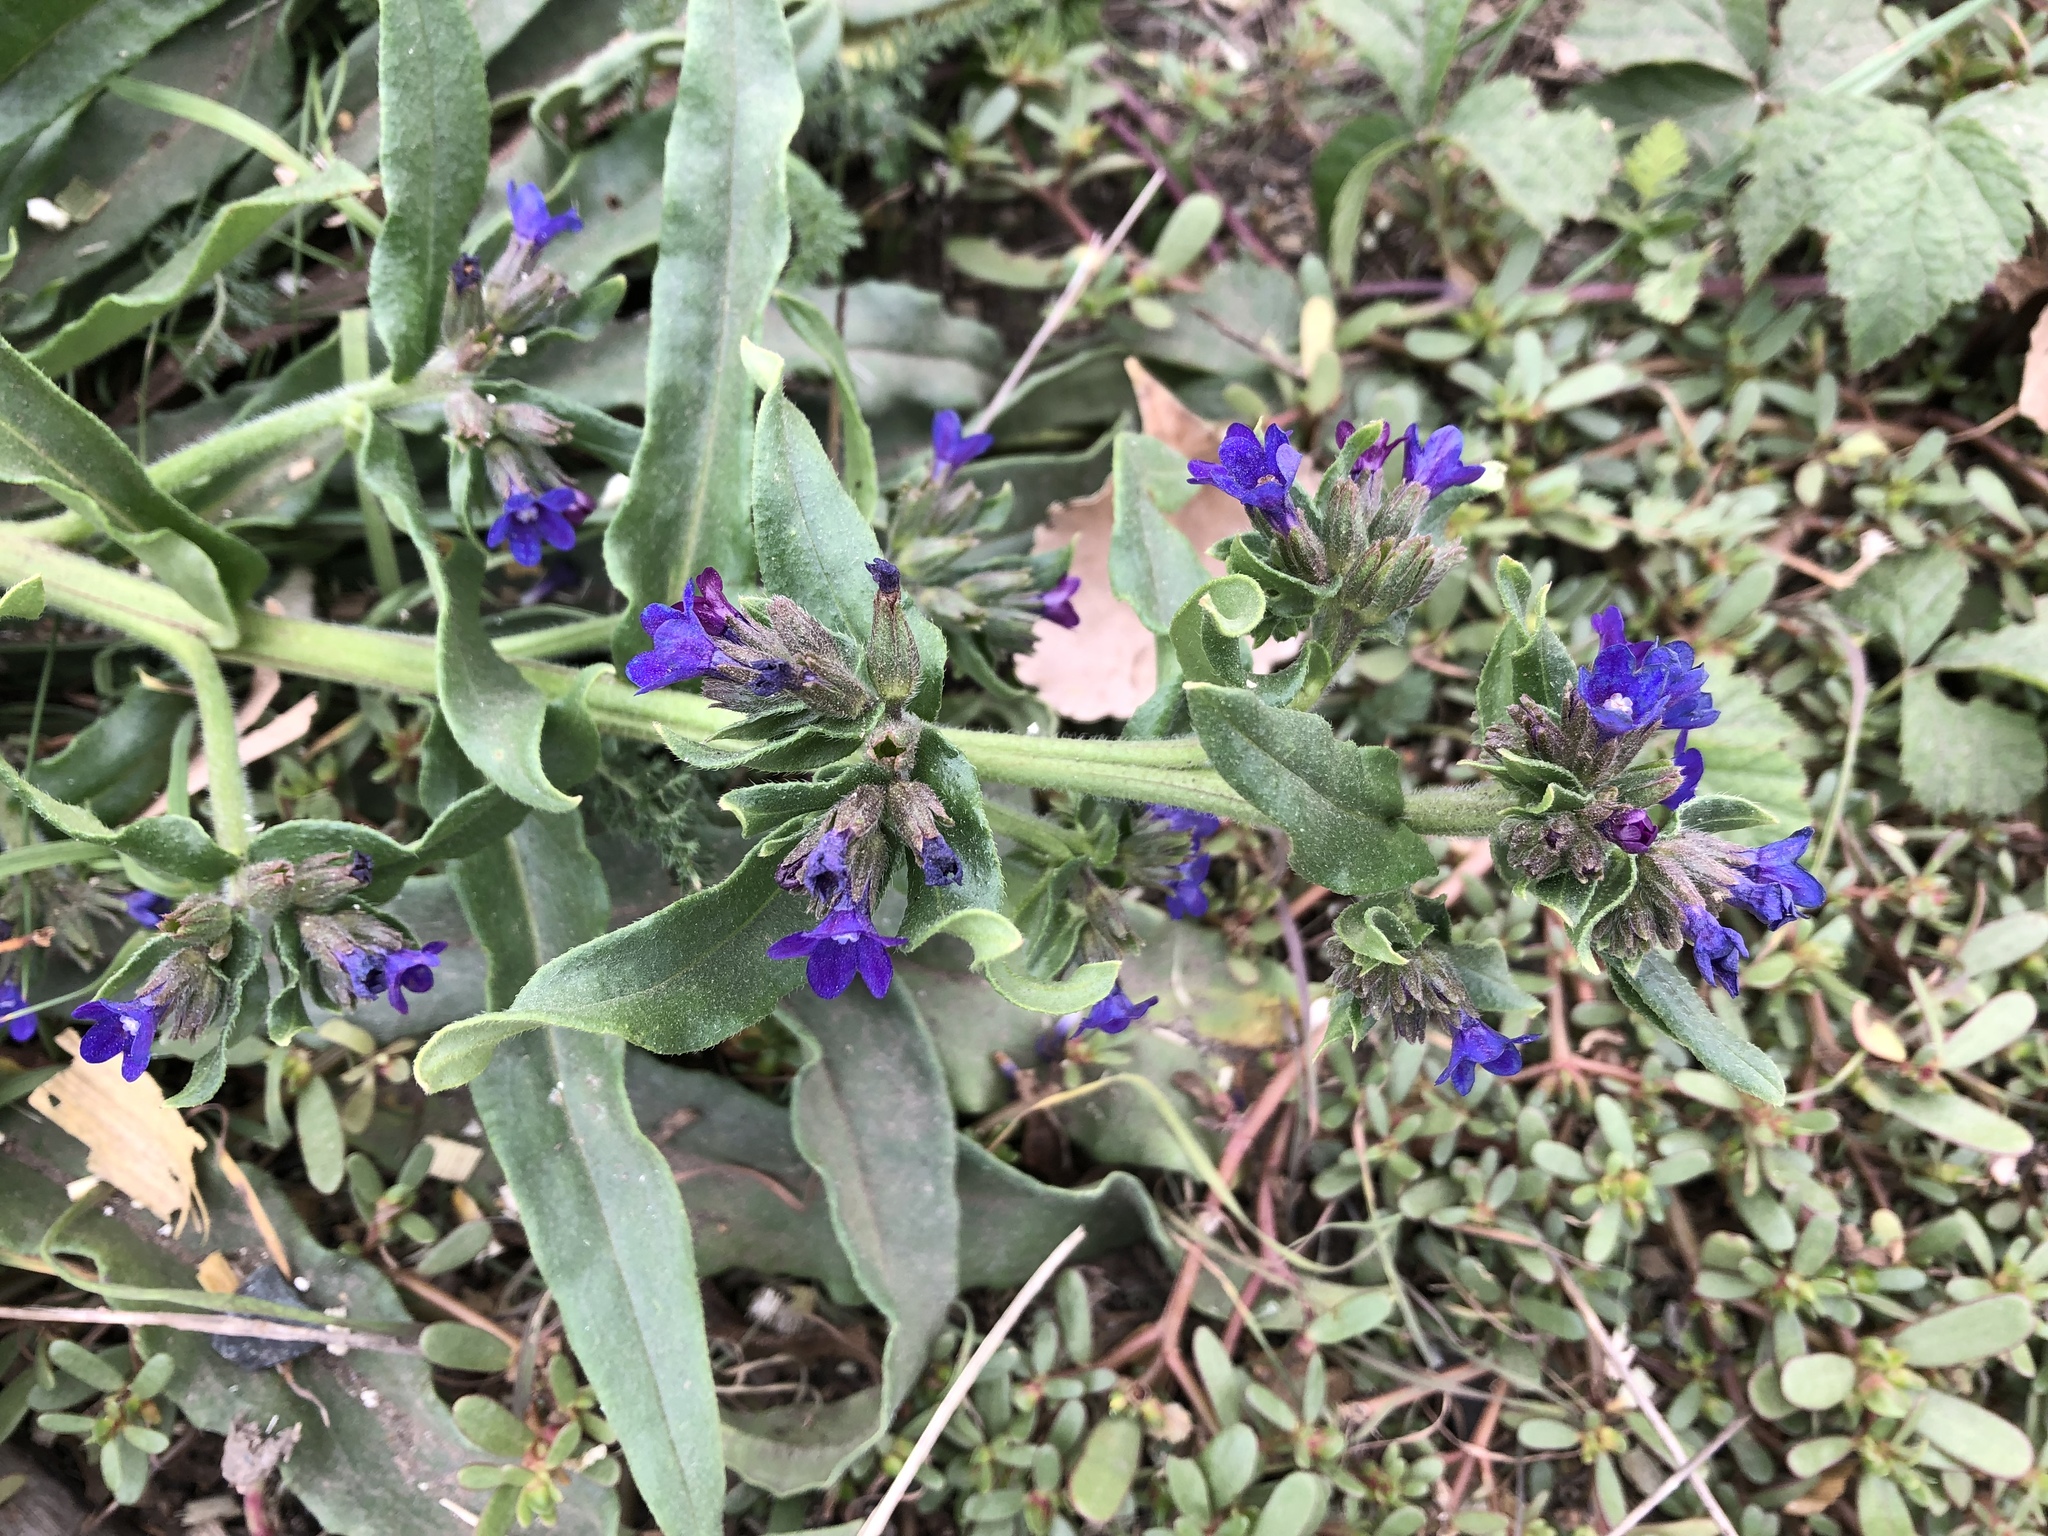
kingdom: Plantae
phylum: Tracheophyta
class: Magnoliopsida
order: Boraginales
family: Boraginaceae
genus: Anchusa
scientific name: Anchusa officinalis
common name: Alkanet
